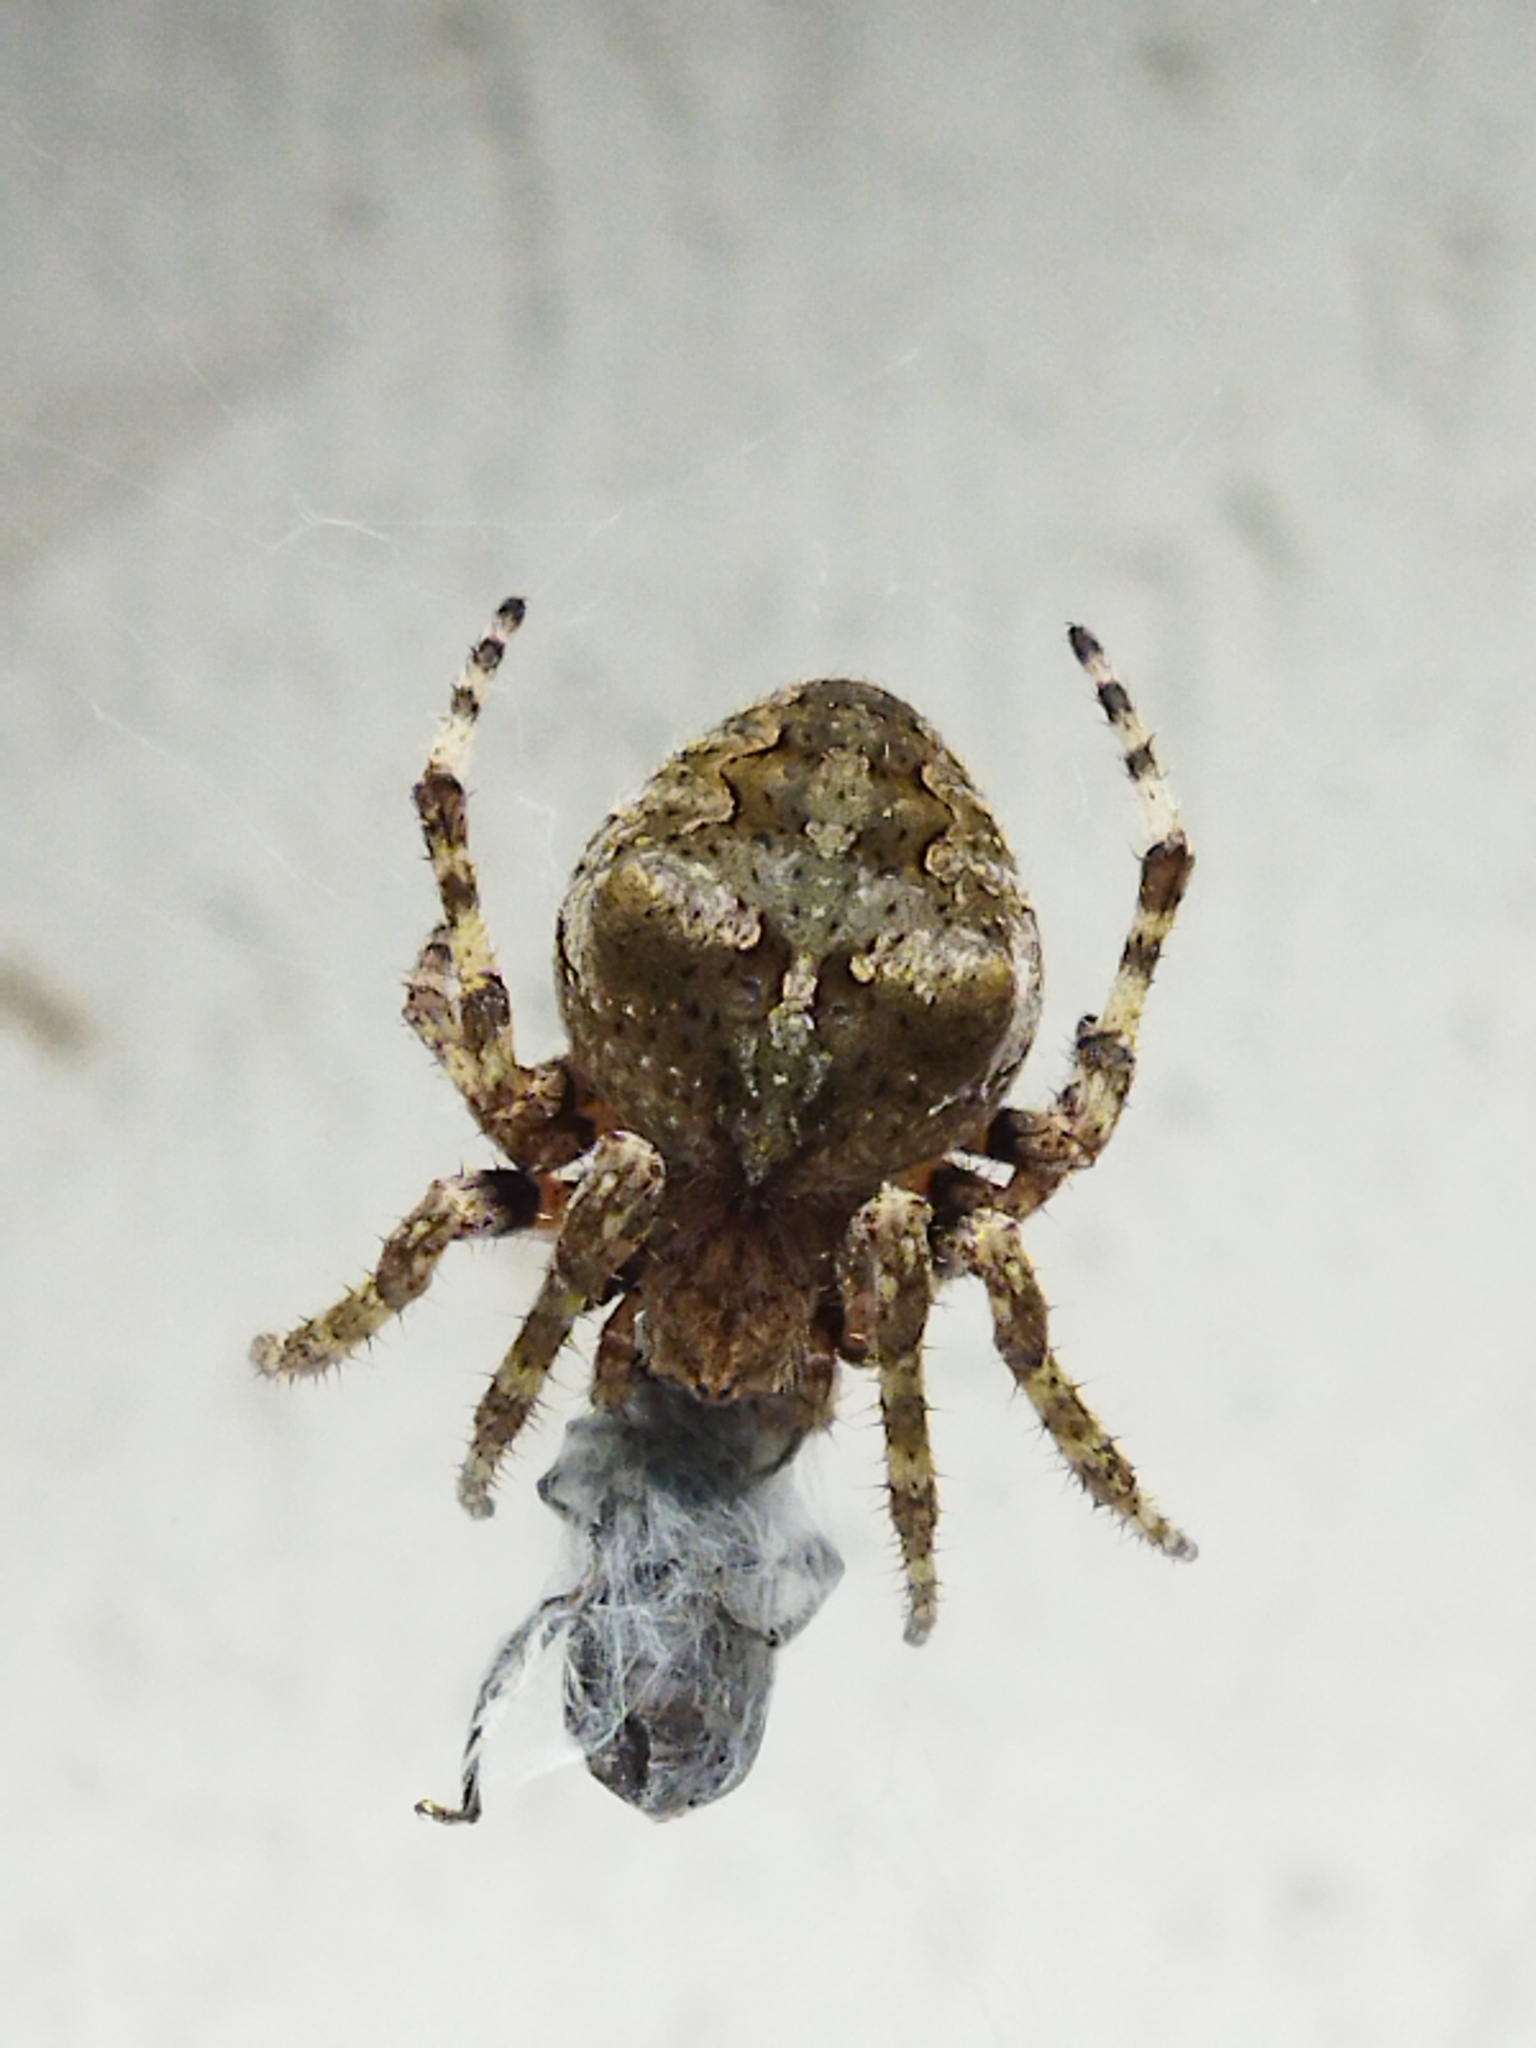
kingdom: Animalia
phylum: Arthropoda
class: Arachnida
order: Araneae
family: Araneidae
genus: Araneus
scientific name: Araneus angulatus
